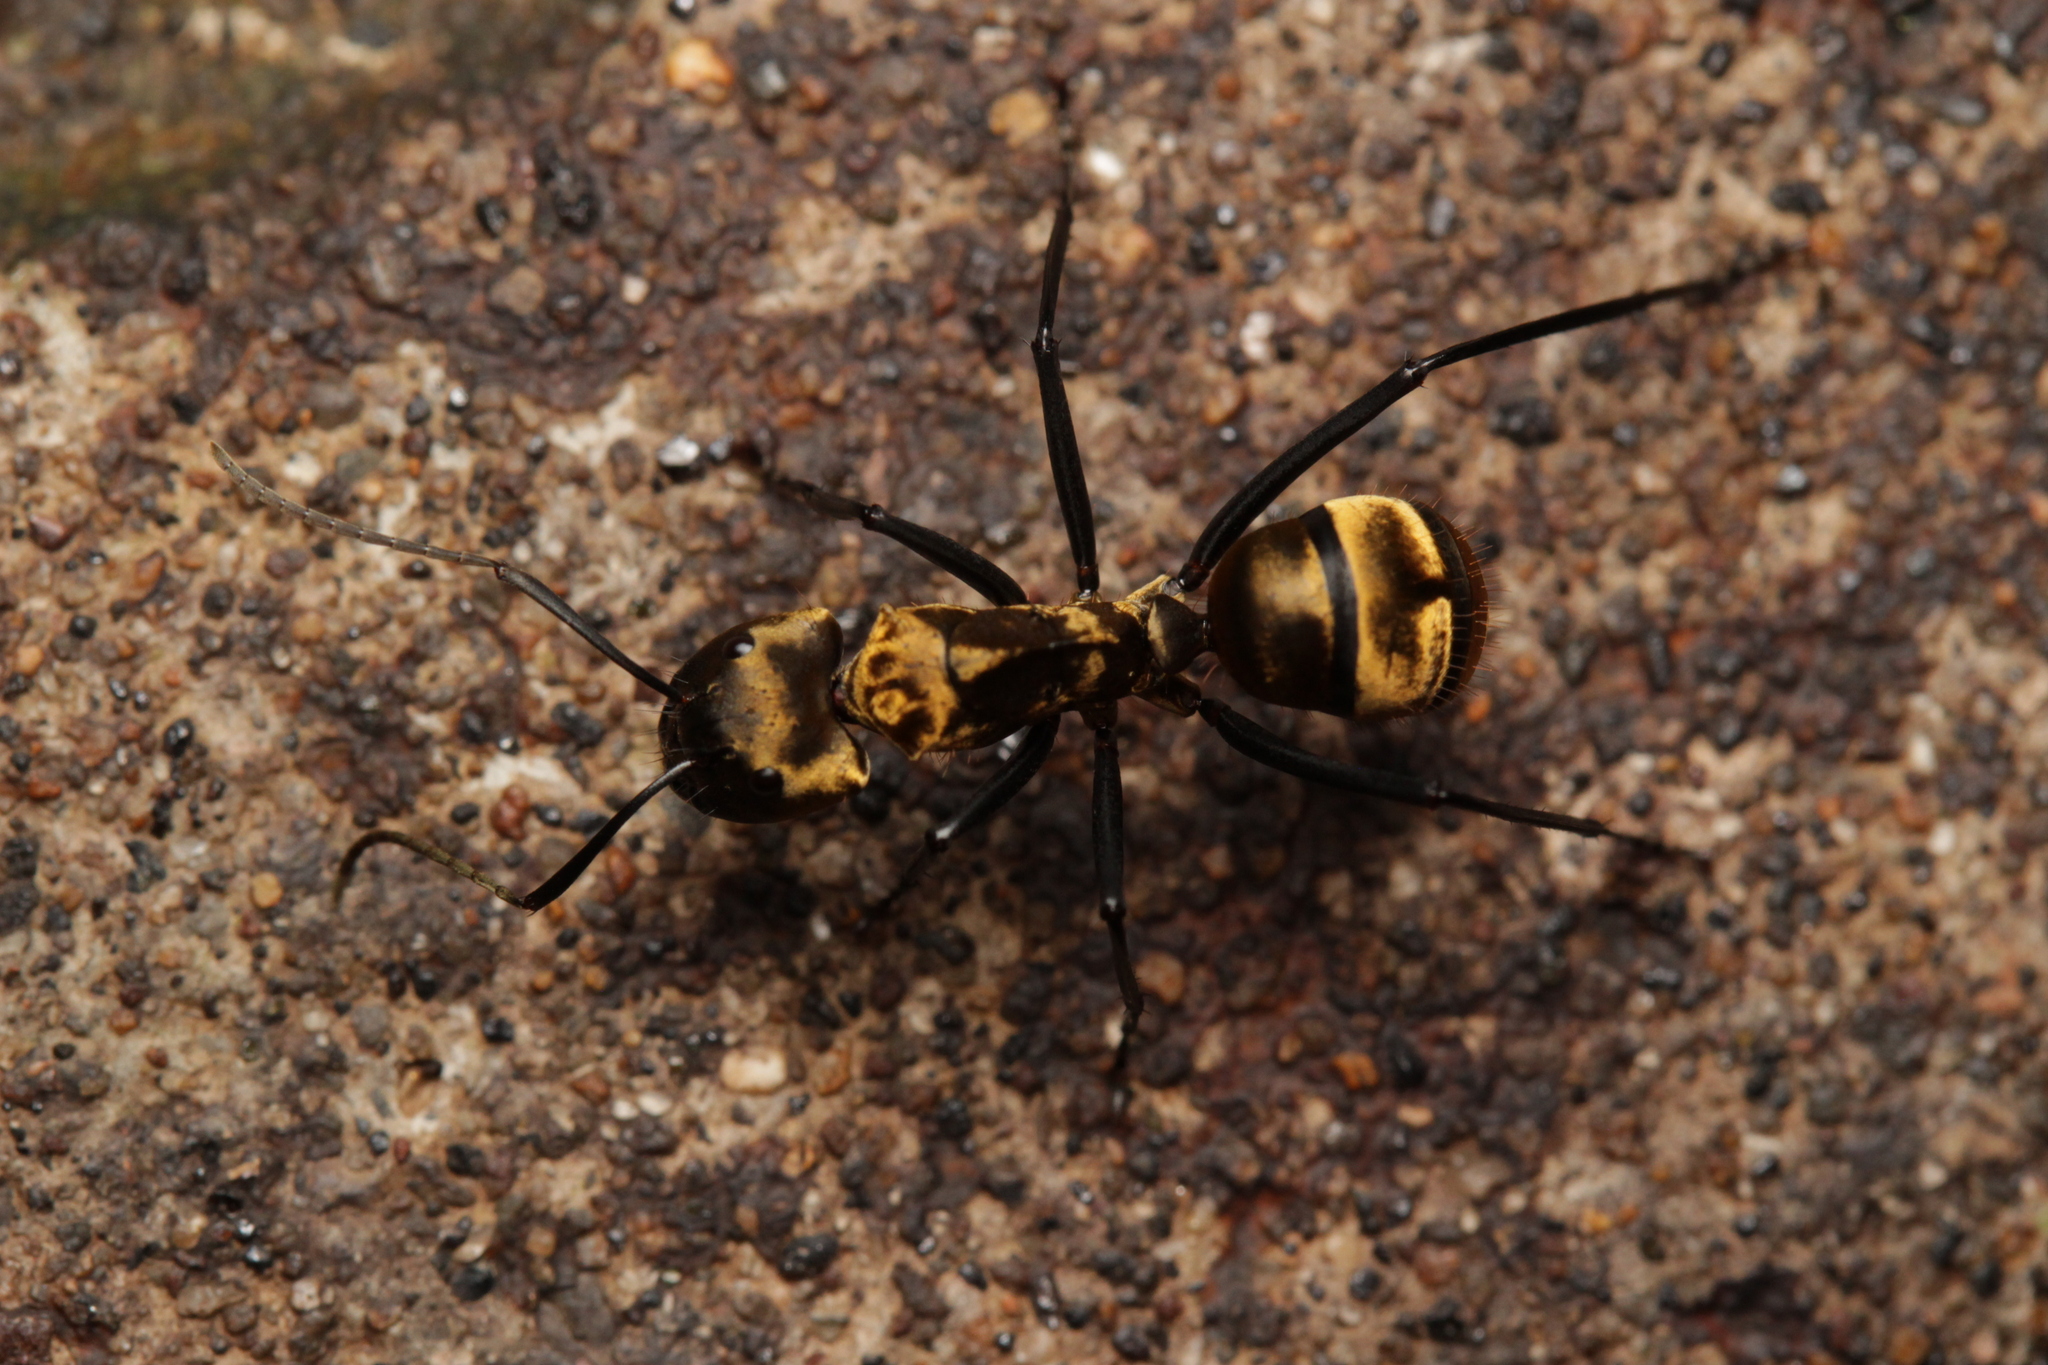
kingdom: Animalia
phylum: Arthropoda
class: Insecta
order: Hymenoptera
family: Formicidae
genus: Camponotus
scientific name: Camponotus sericeiventris
